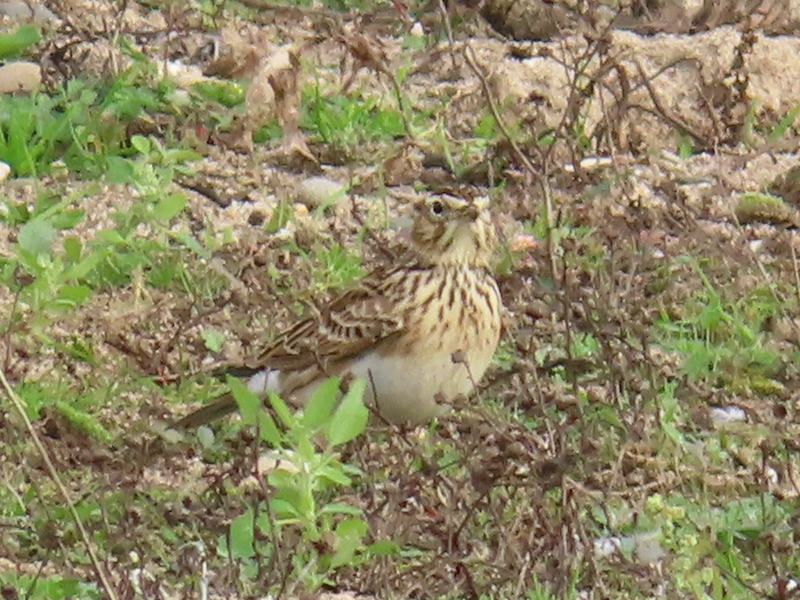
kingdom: Animalia
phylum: Chordata
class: Aves
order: Passeriformes
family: Alaudidae
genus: Alauda
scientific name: Alauda arvensis
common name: Eurasian skylark
